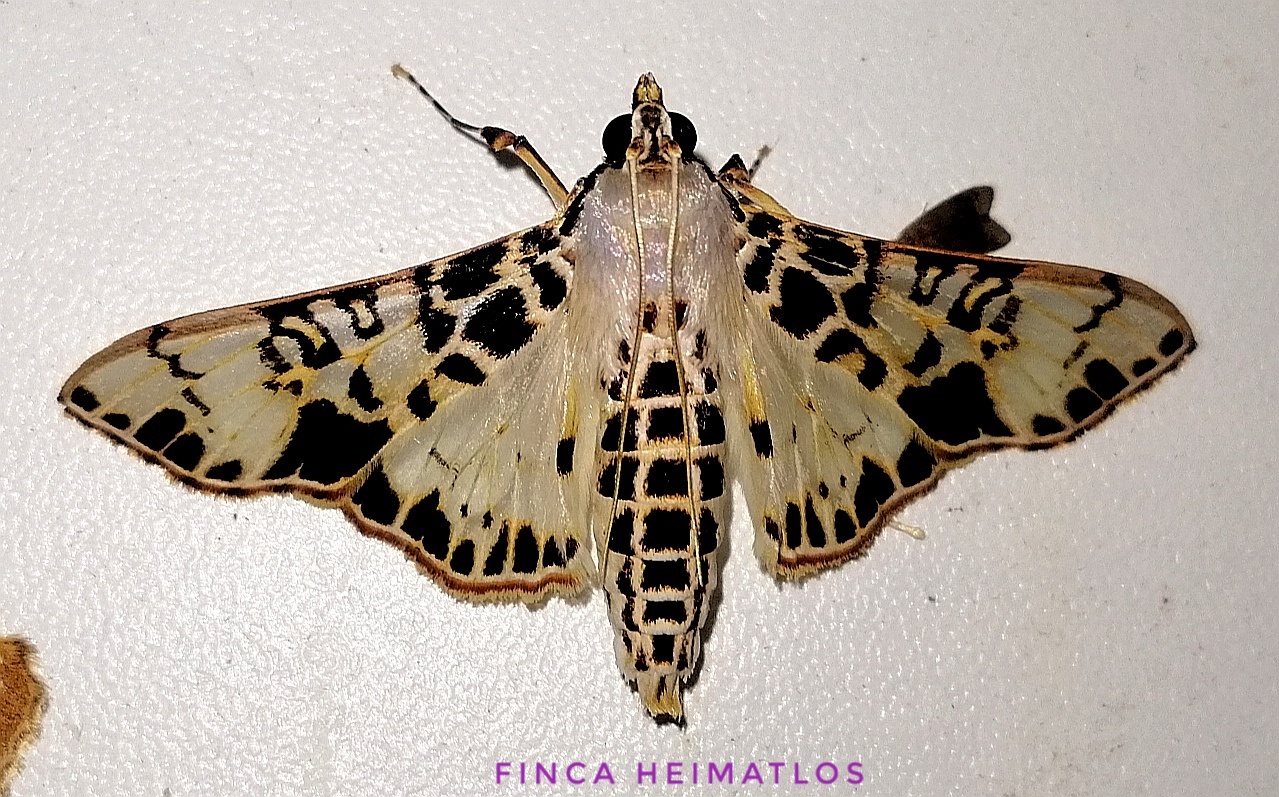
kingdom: Animalia
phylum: Arthropoda
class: Insecta
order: Lepidoptera
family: Crambidae
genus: Azochis
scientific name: Azochis pieralis
